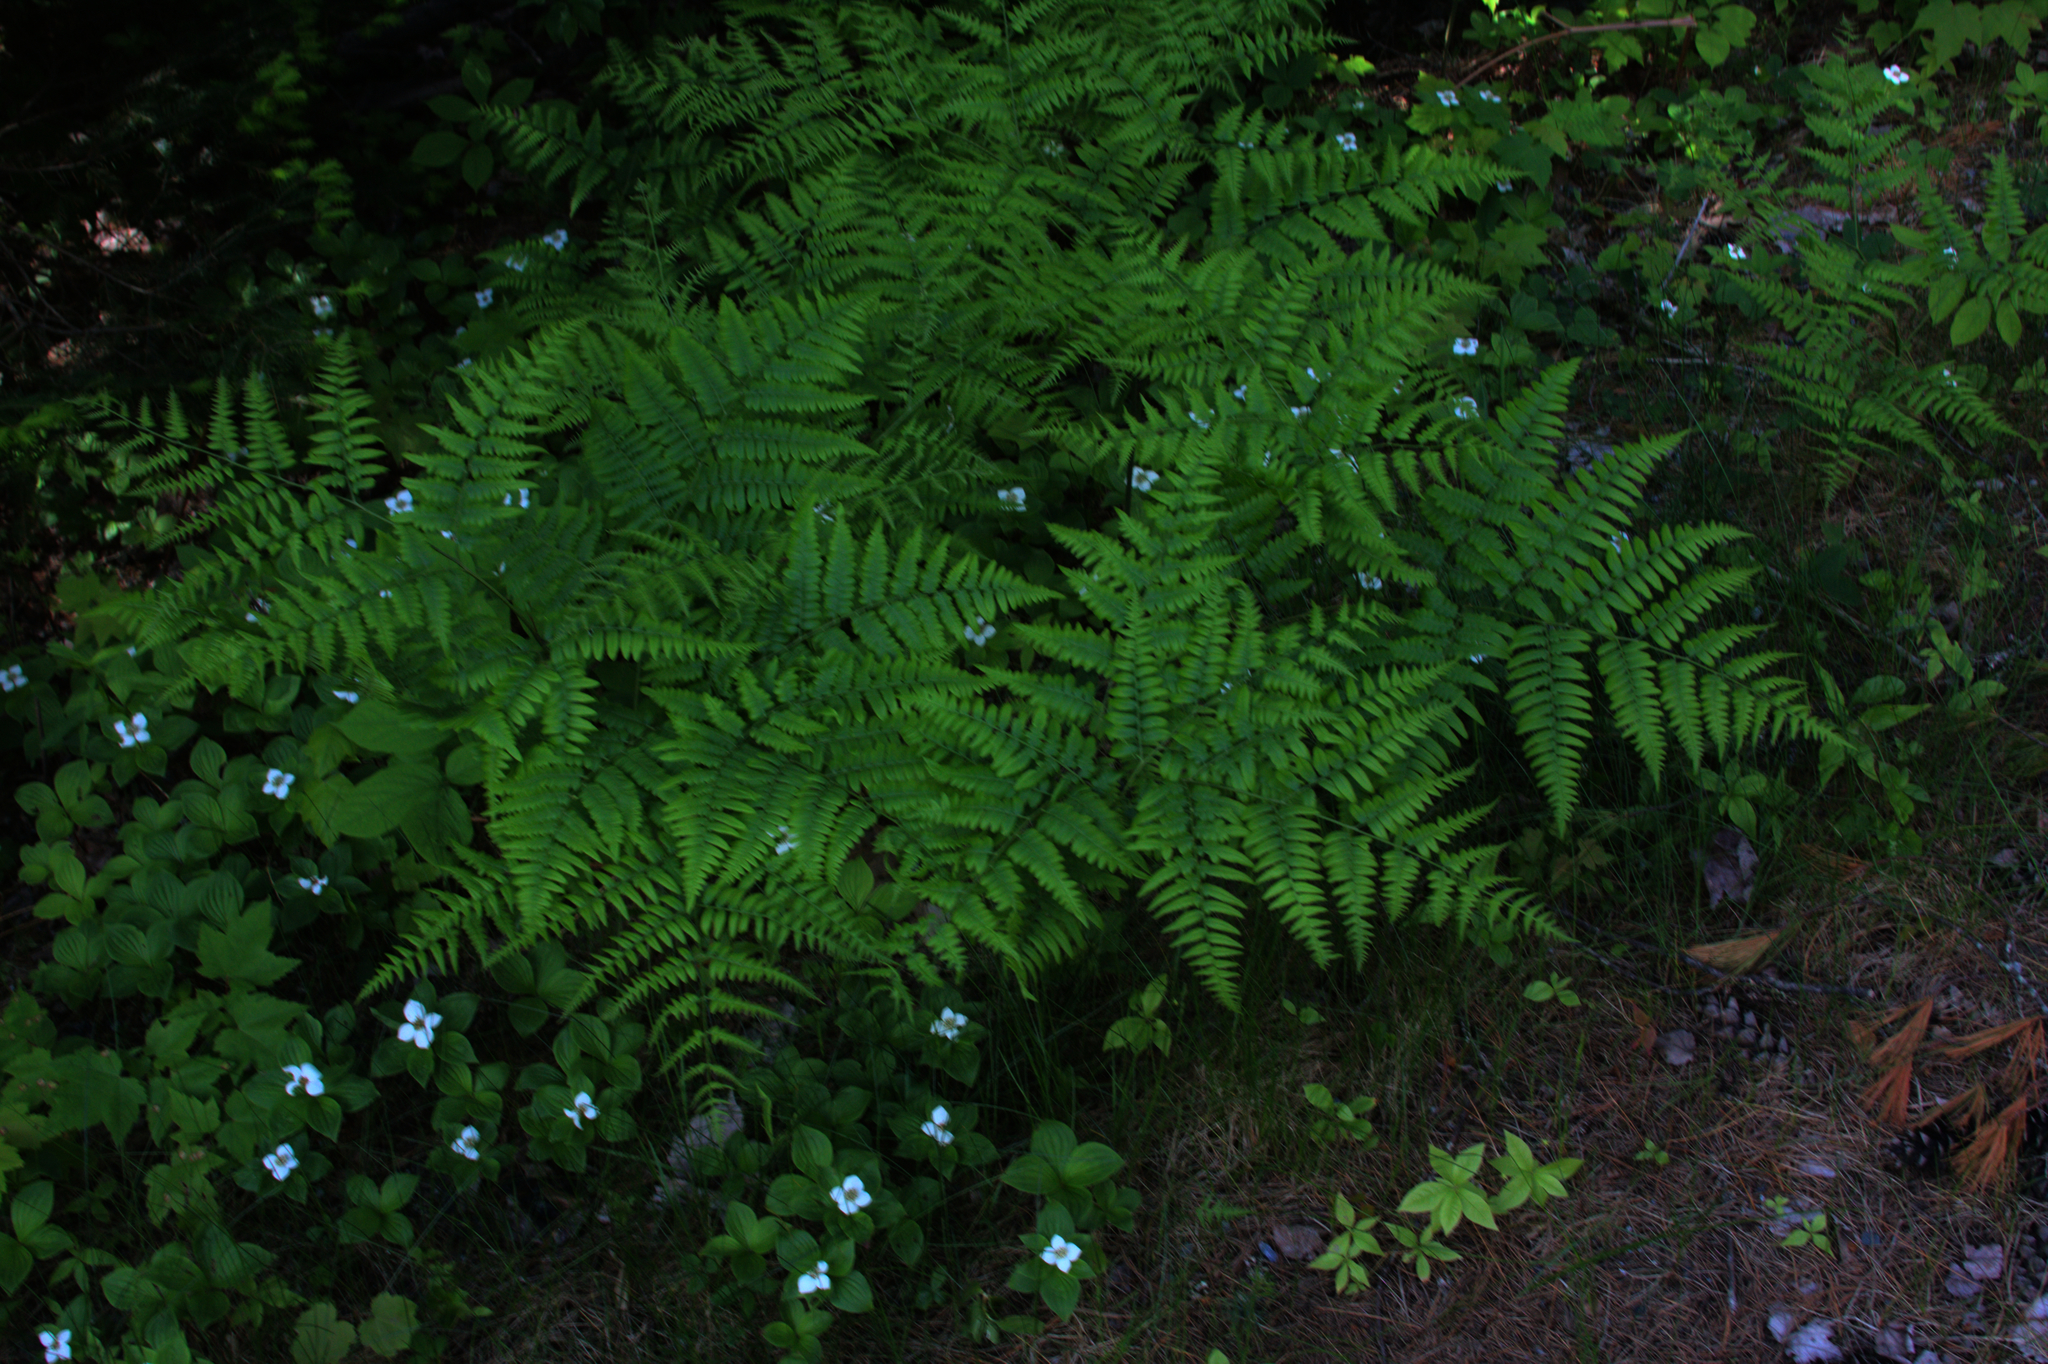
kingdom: Plantae
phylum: Tracheophyta
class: Polypodiopsida
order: Polypodiales
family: Dennstaedtiaceae
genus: Pteridium
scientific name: Pteridium aquilinum
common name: Bracken
